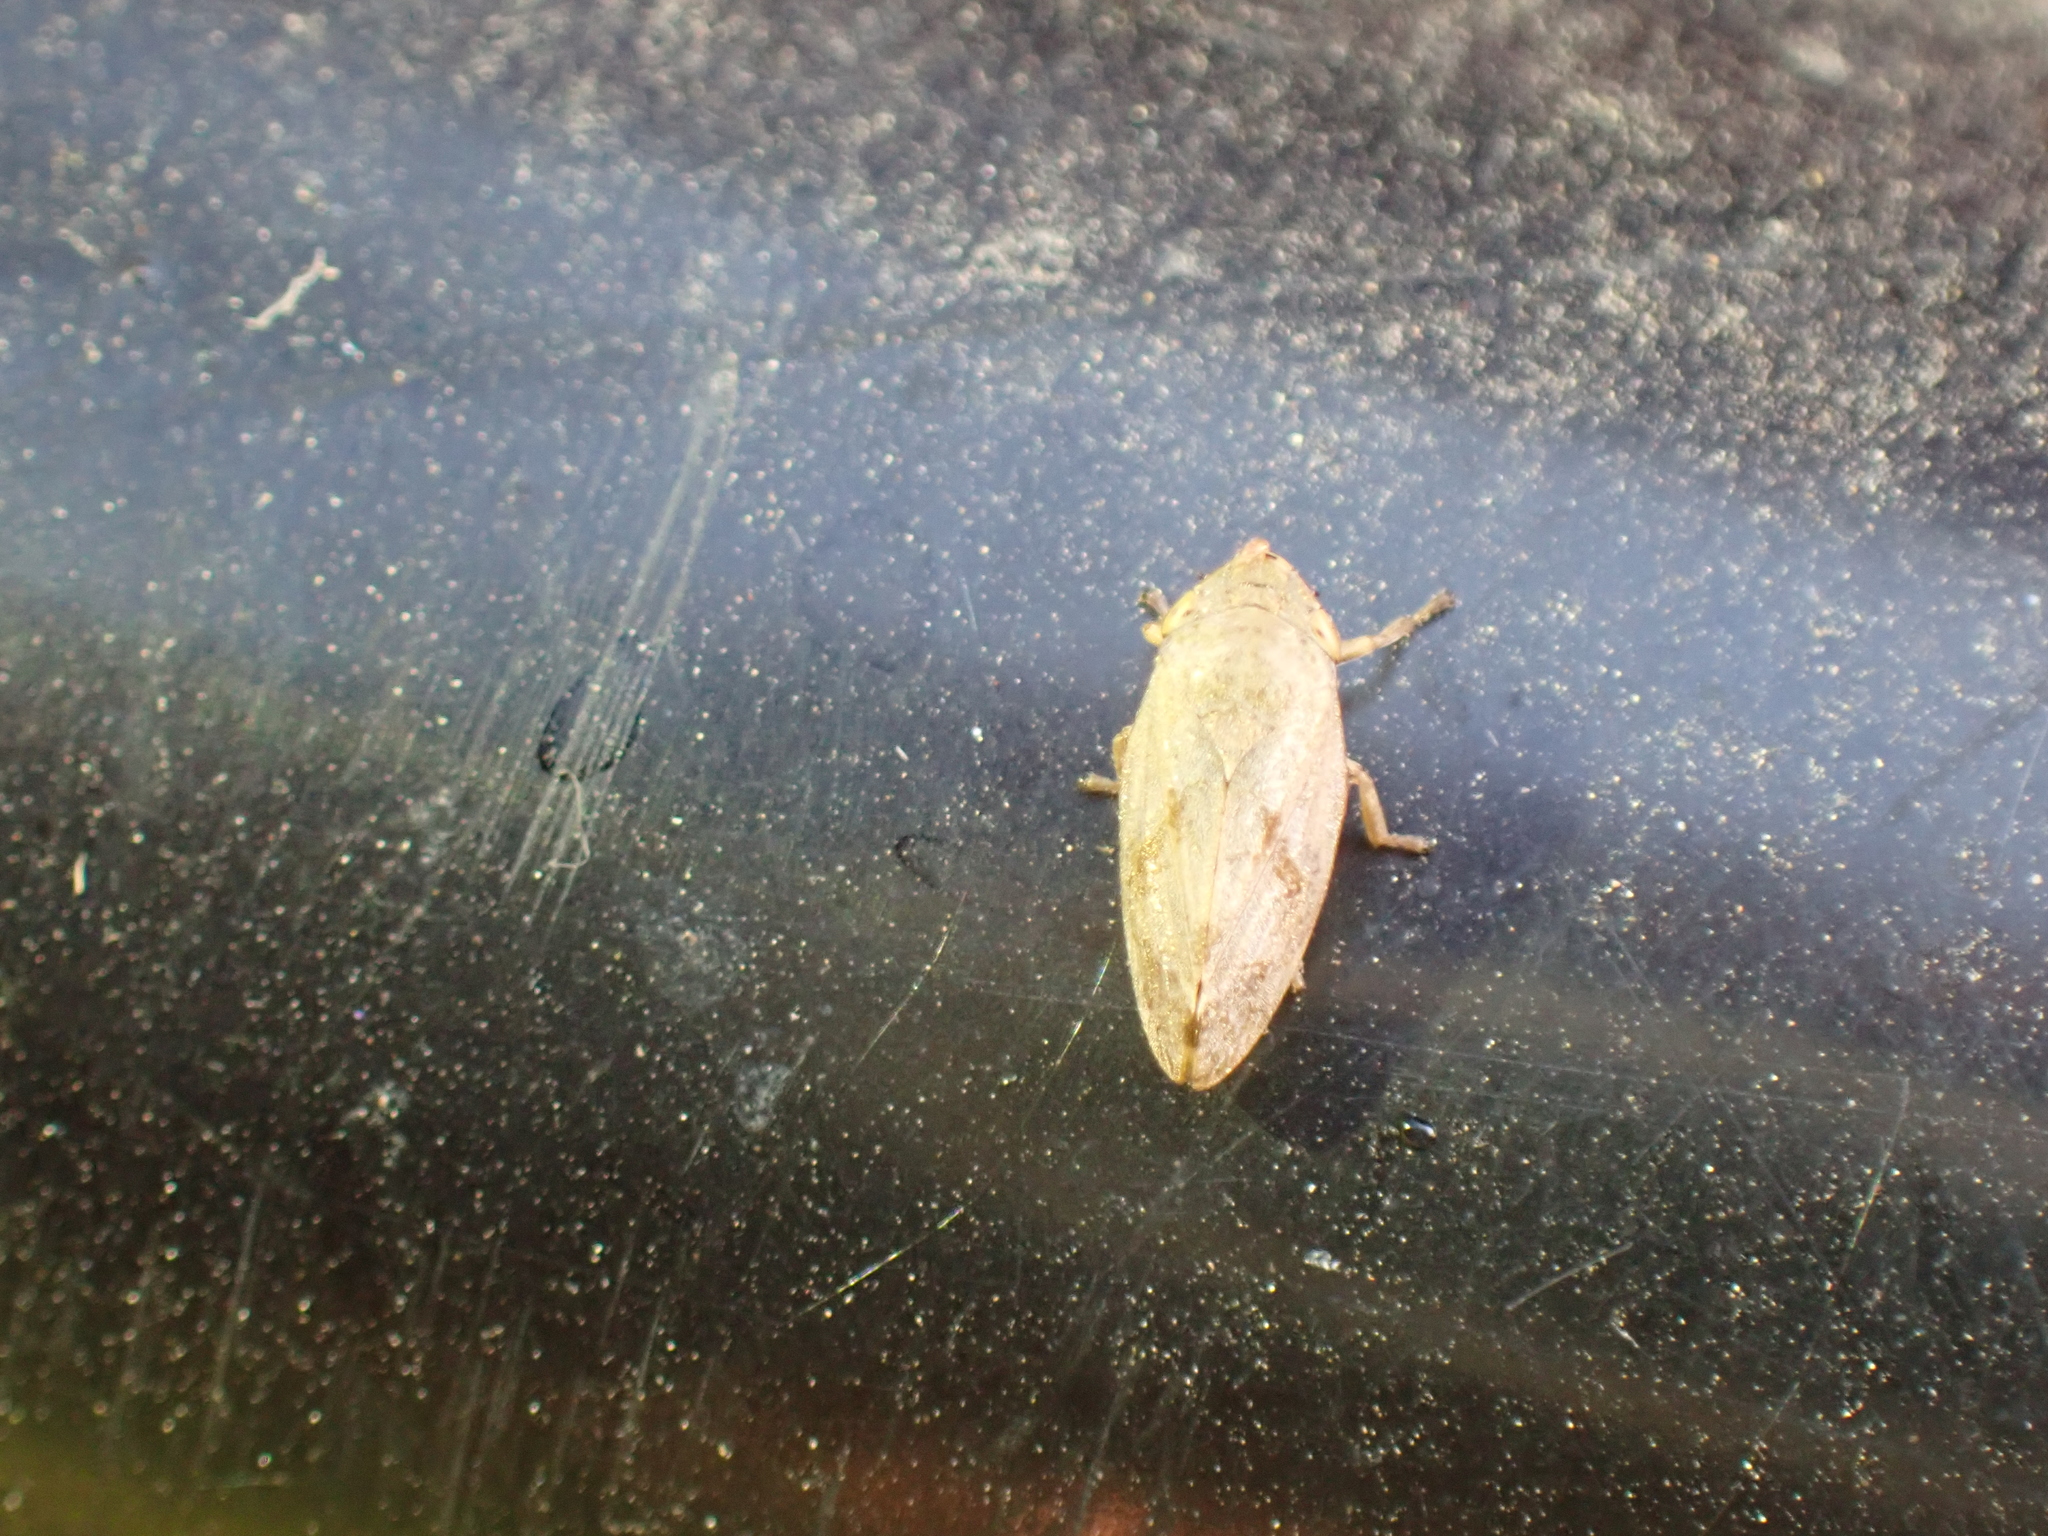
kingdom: Animalia
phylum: Arthropoda
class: Insecta
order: Hemiptera
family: Aphrophoridae
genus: Philaenus
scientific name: Philaenus spumarius
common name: Meadow spittlebug
